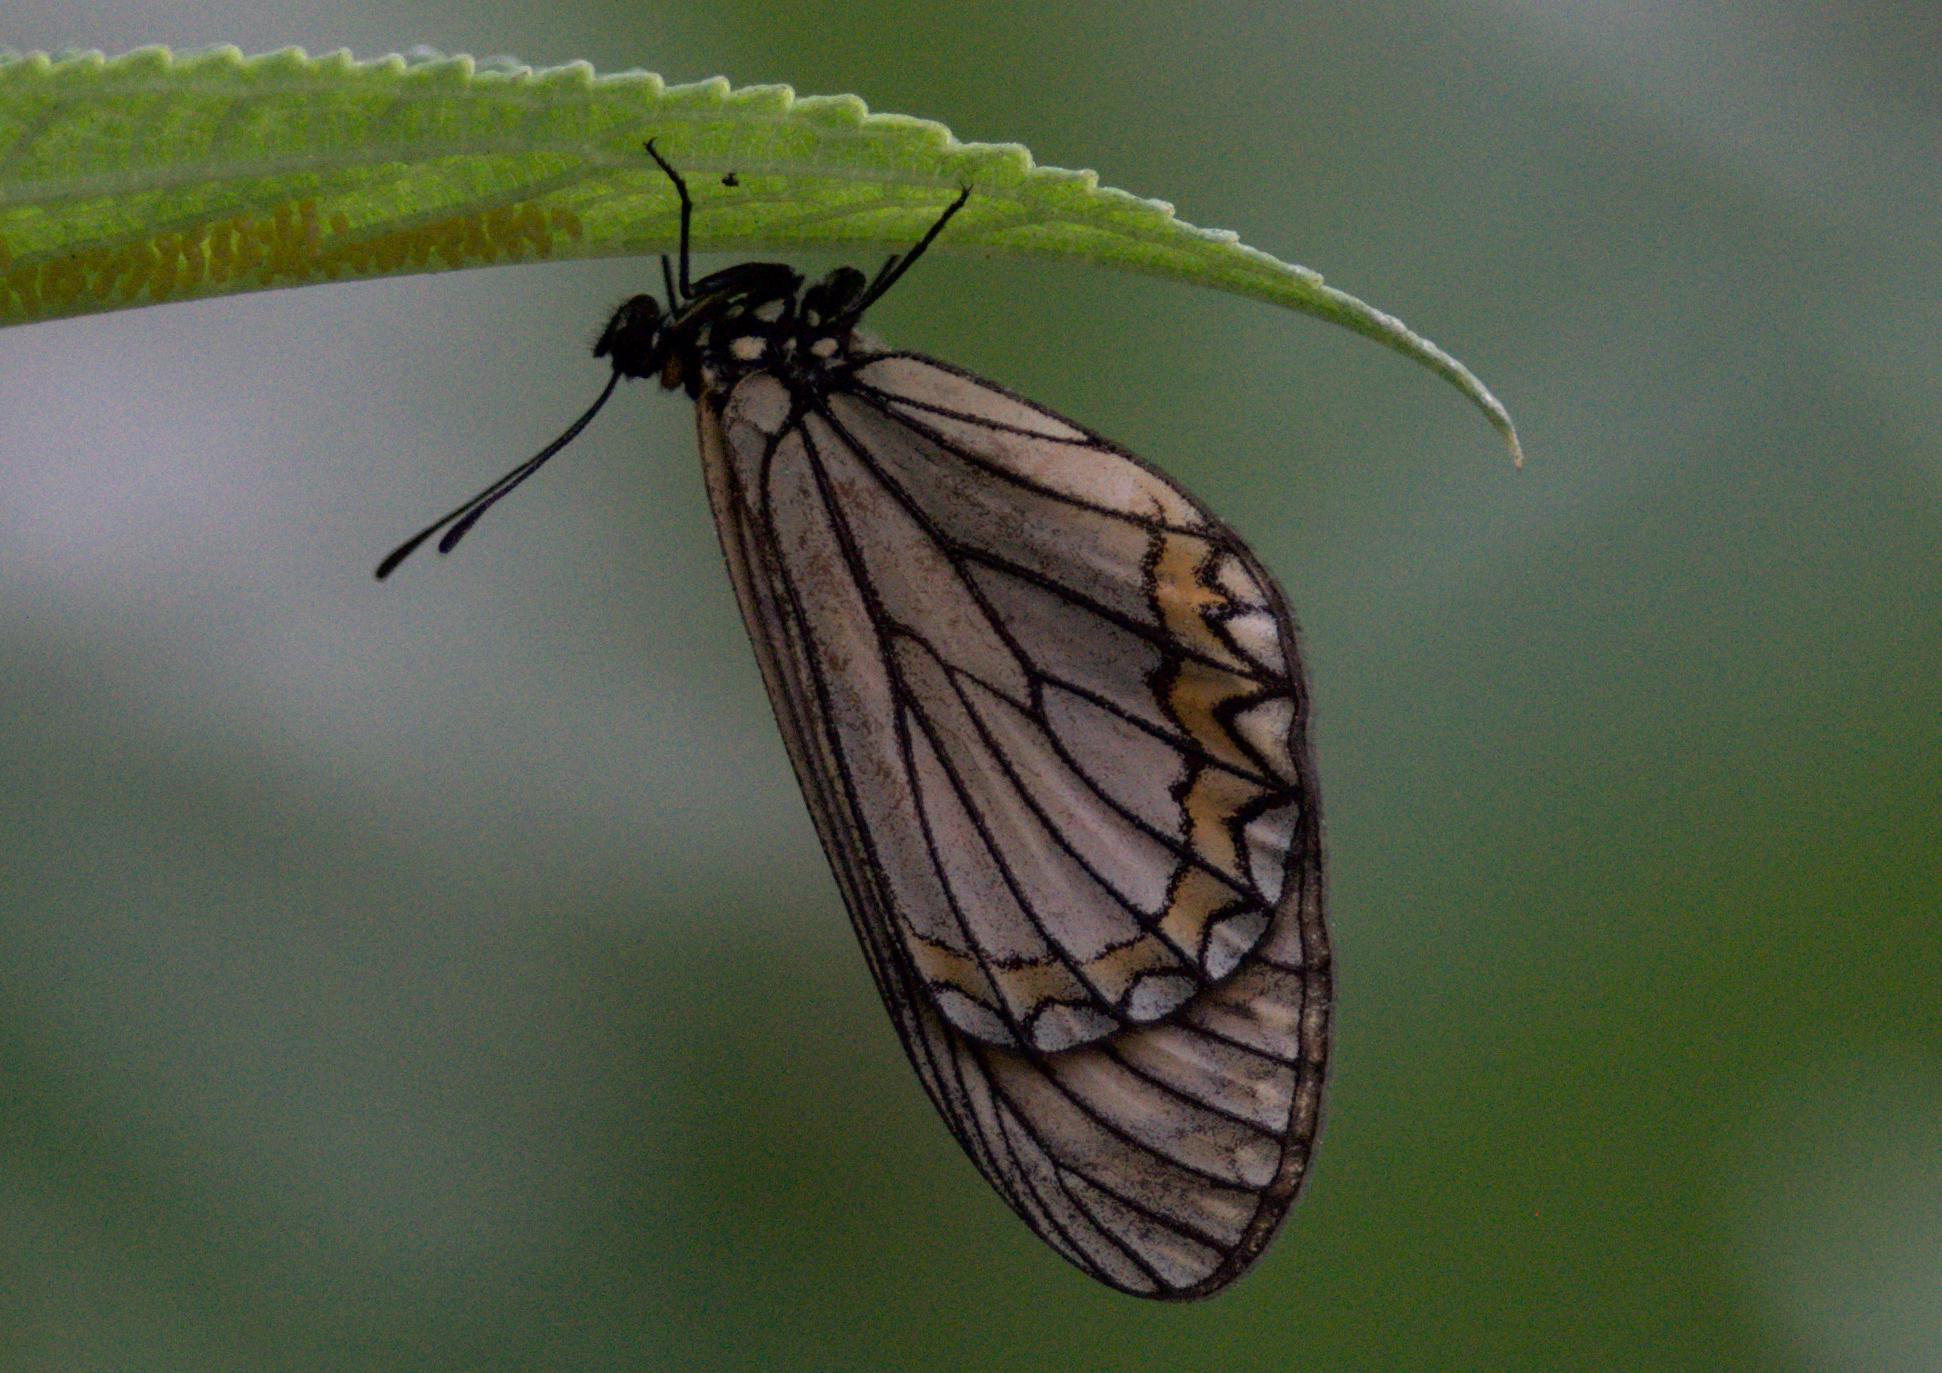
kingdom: Animalia
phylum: Arthropoda
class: Insecta
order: Lepidoptera
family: Nymphalidae
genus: Acraea
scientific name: Acraea Telchinia issoria
